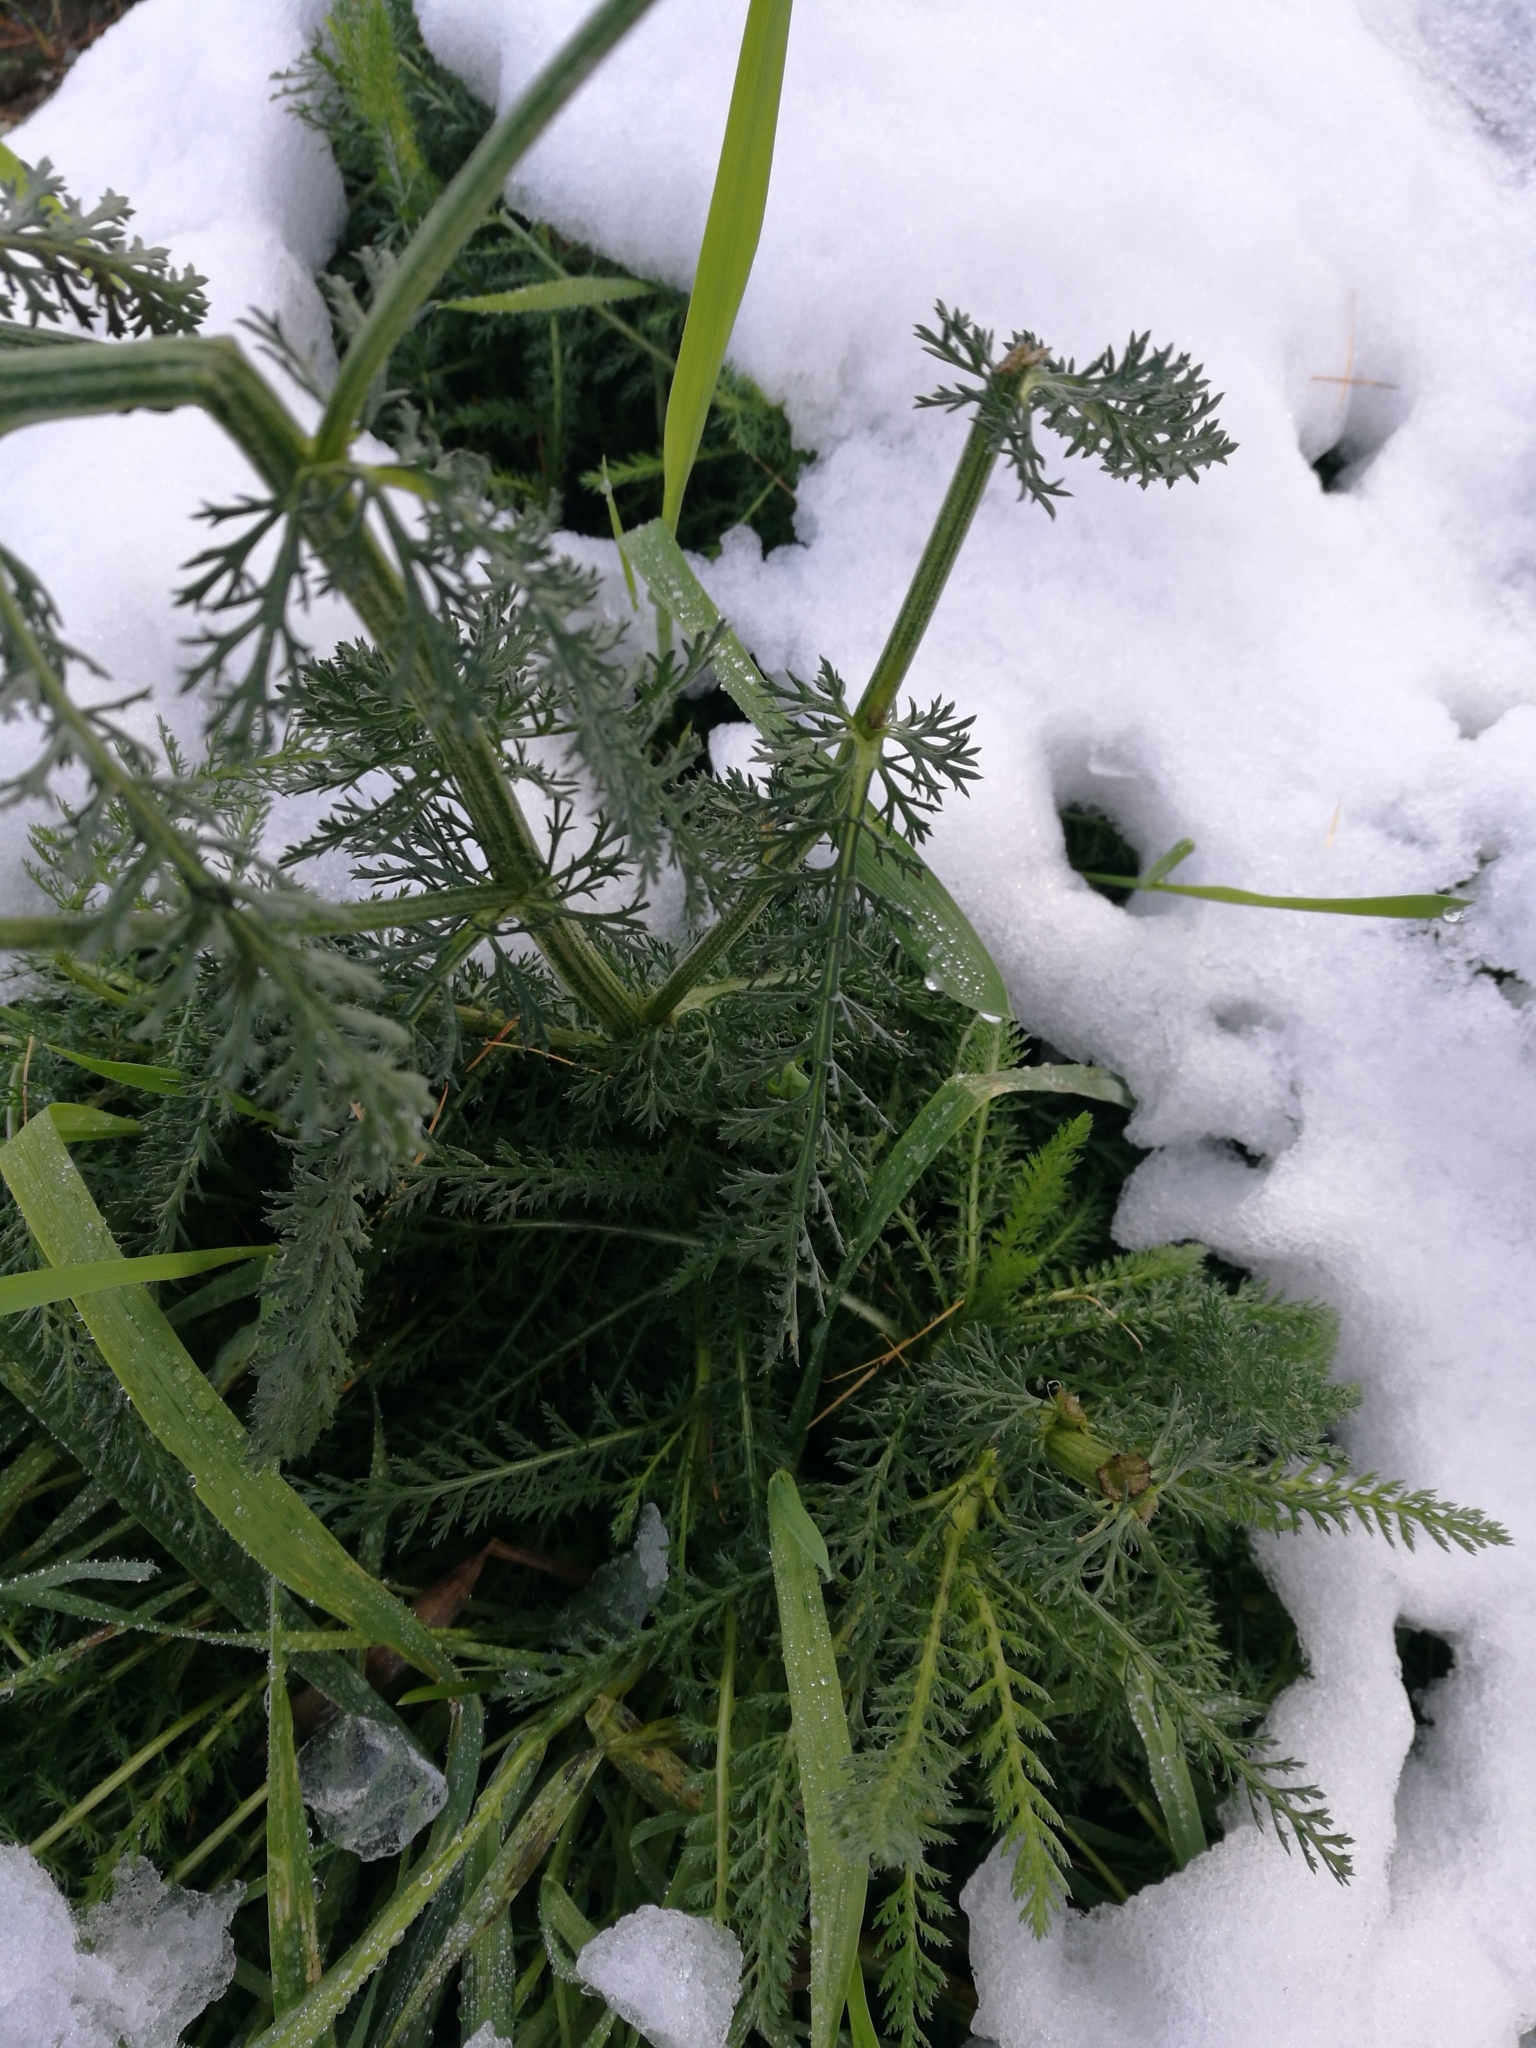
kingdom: Plantae
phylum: Tracheophyta
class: Magnoliopsida
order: Asterales
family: Asteraceae
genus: Achillea
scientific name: Achillea millefolium
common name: Yarrow
